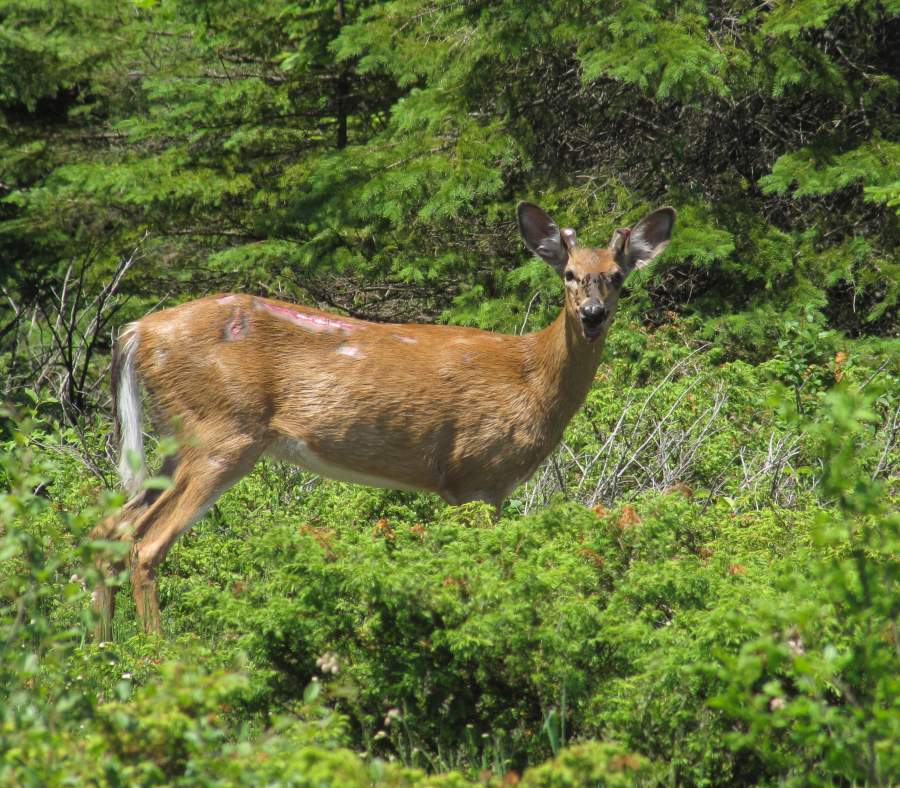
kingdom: Animalia
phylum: Chordata
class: Mammalia
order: Artiodactyla
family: Cervidae
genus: Odocoileus
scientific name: Odocoileus virginianus
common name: White-tailed deer
